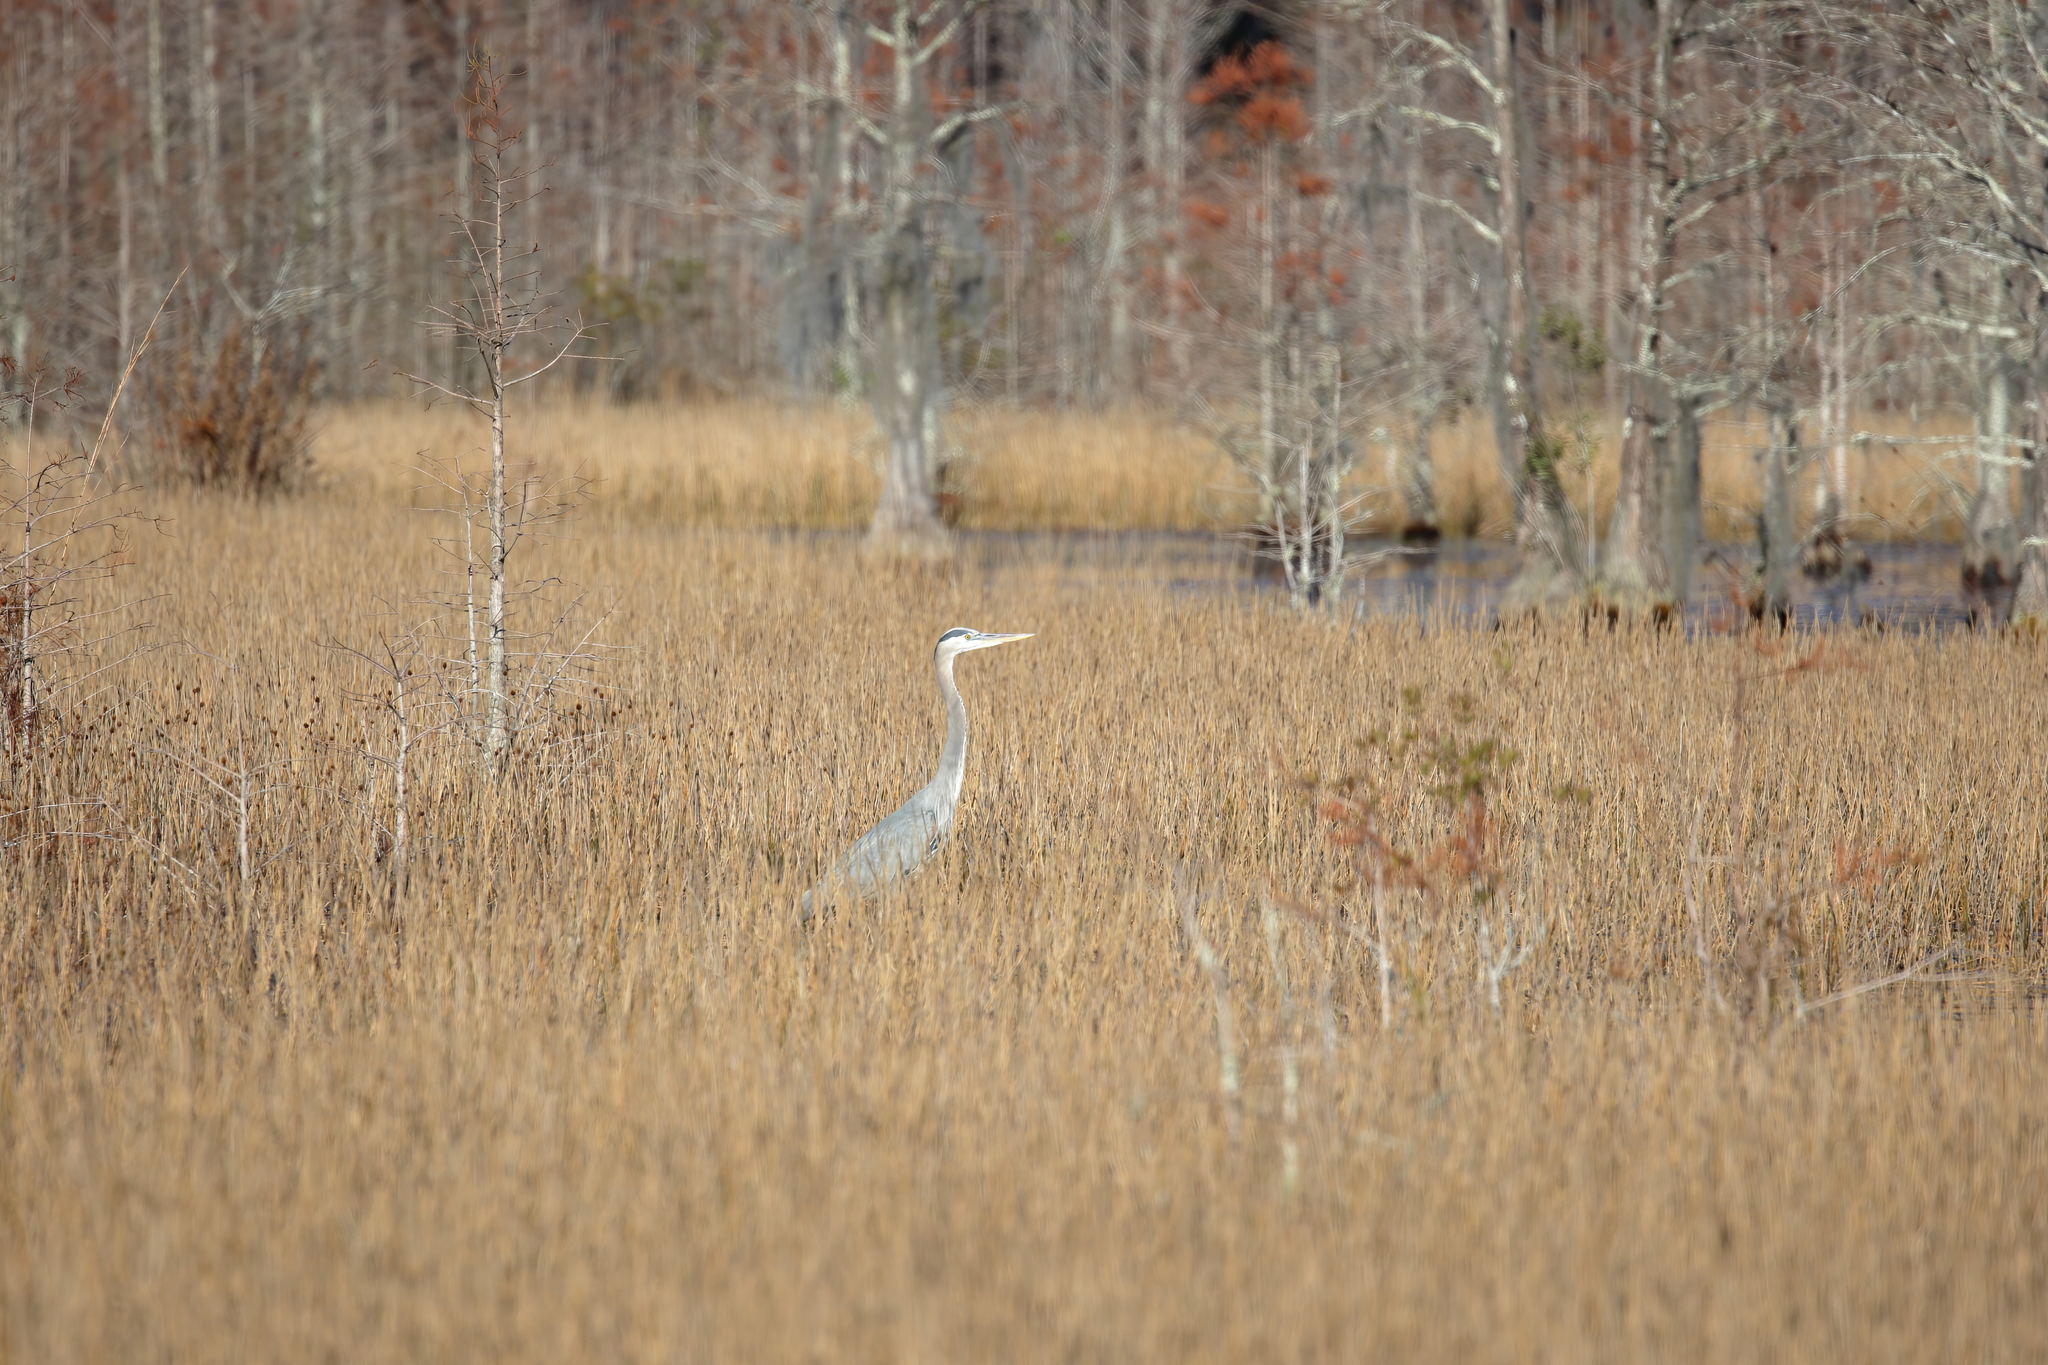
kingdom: Animalia
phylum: Chordata
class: Aves
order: Pelecaniformes
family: Ardeidae
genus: Ardea
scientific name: Ardea herodias
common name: Great blue heron
